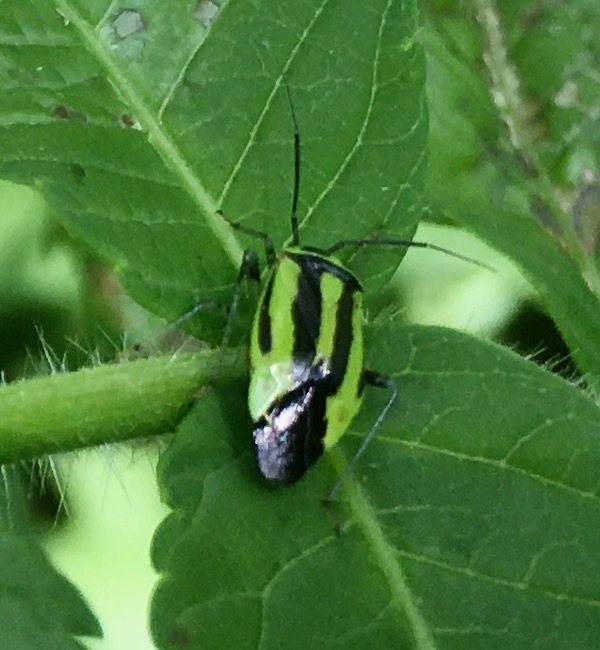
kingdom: Animalia
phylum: Arthropoda
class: Insecta
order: Hemiptera
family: Miridae
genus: Poecilocapsus
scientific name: Poecilocapsus lineatus
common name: Four-lined plant bug
